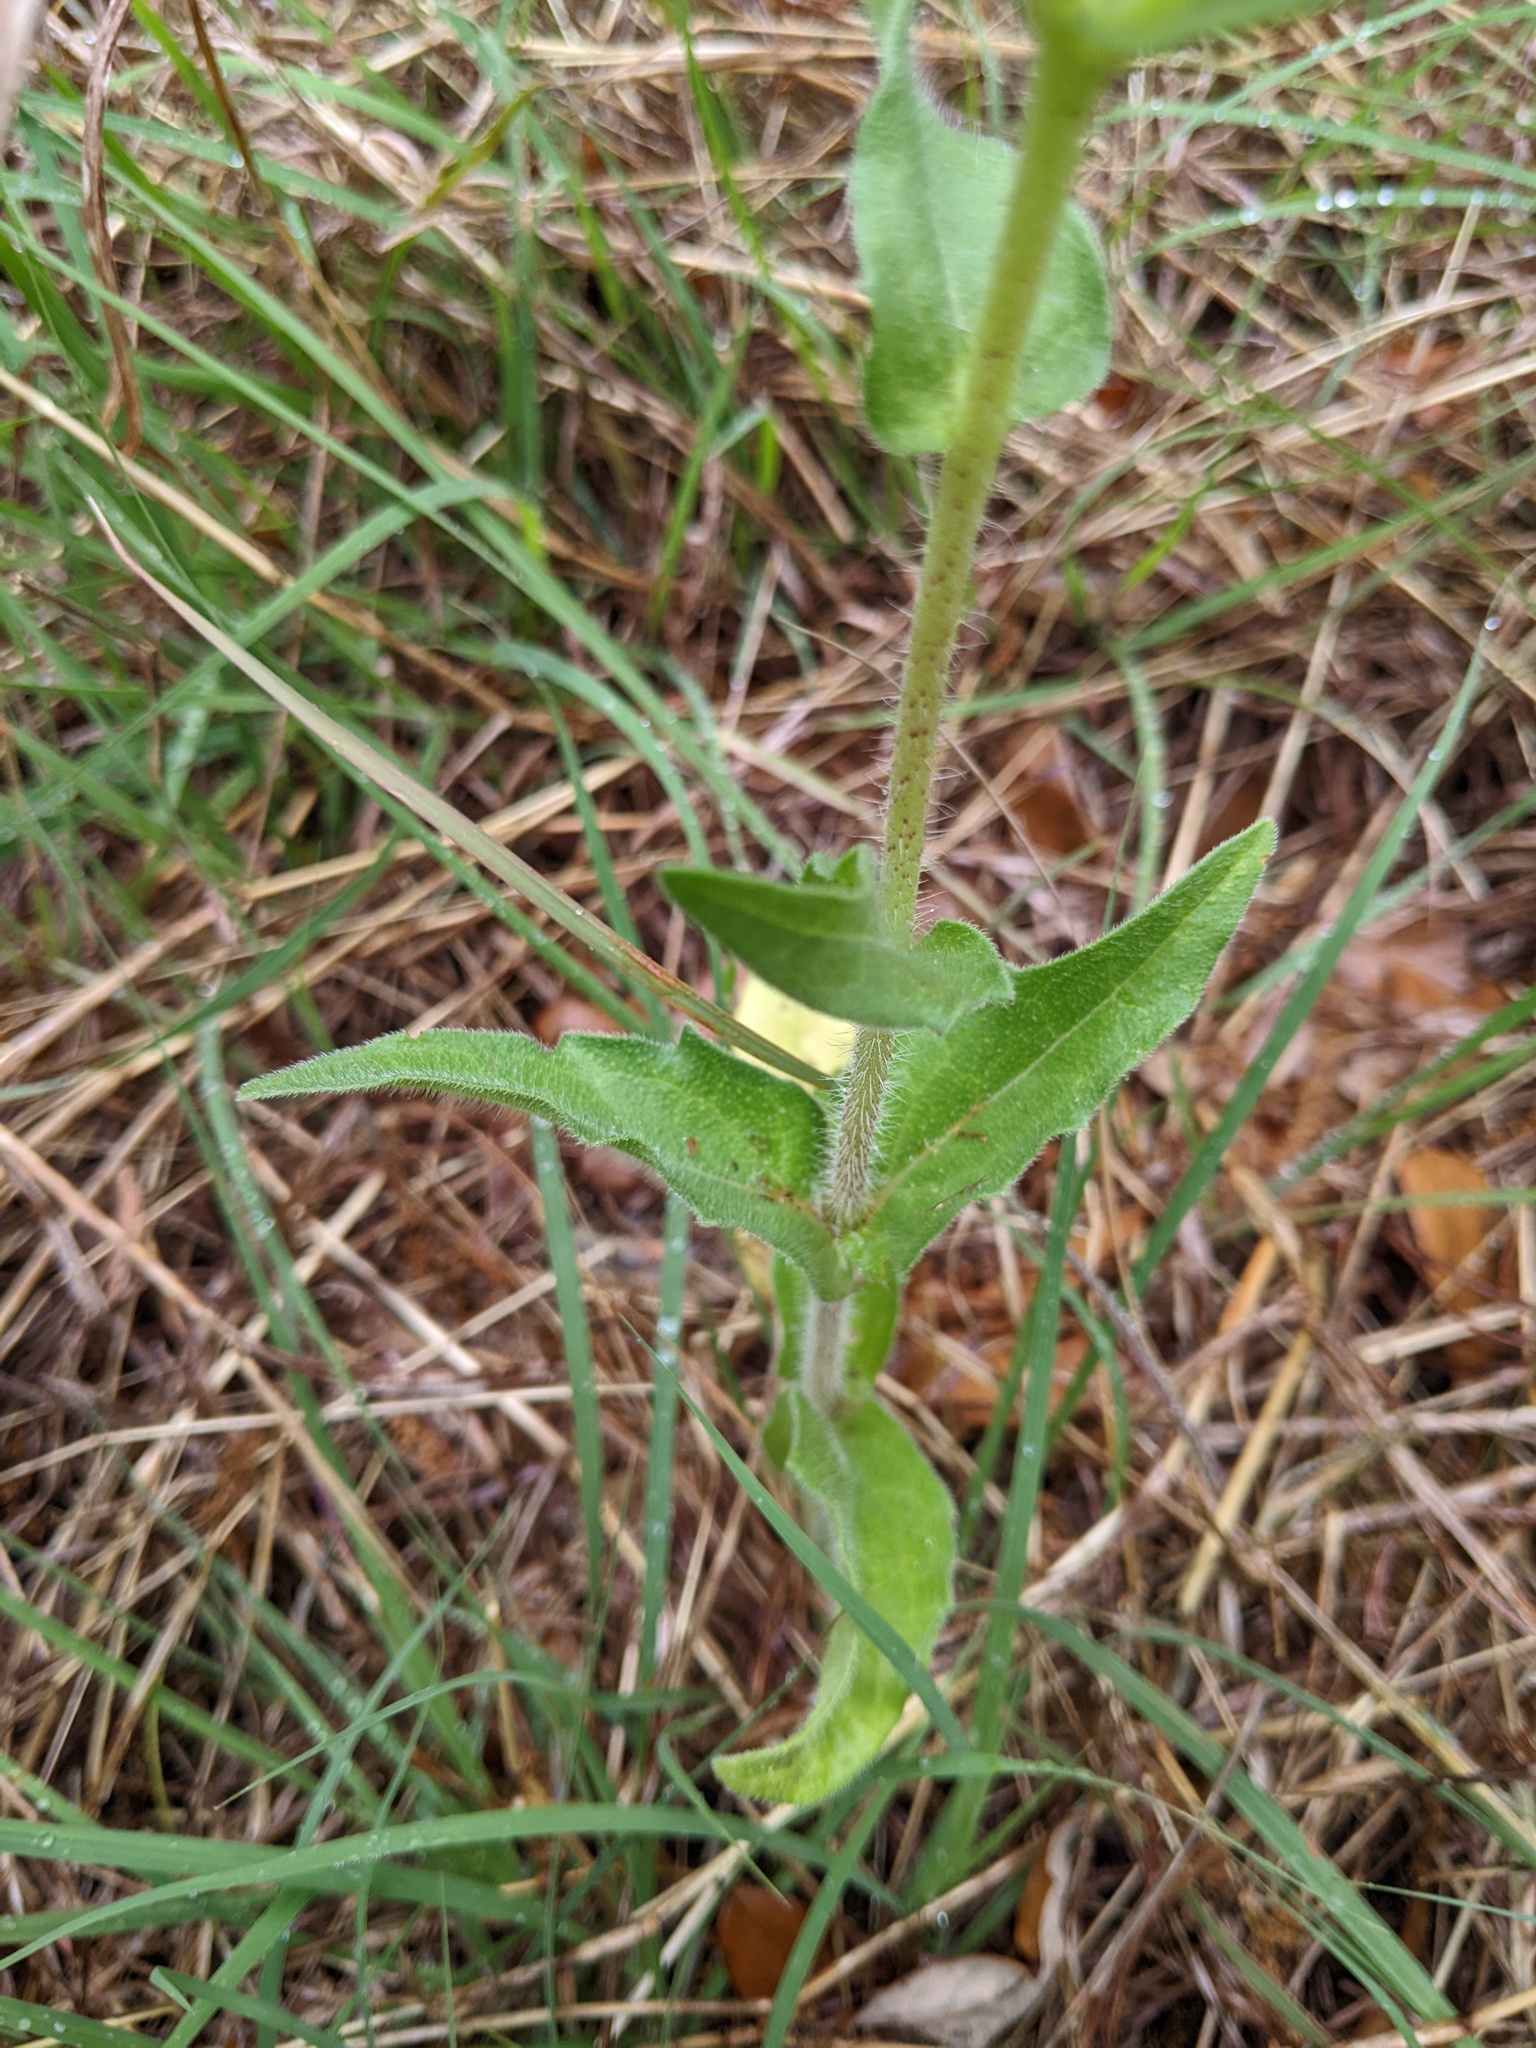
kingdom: Plantae
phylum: Tracheophyta
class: Magnoliopsida
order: Asterales
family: Asteraceae
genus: Lindheimera
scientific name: Lindheimera texana
